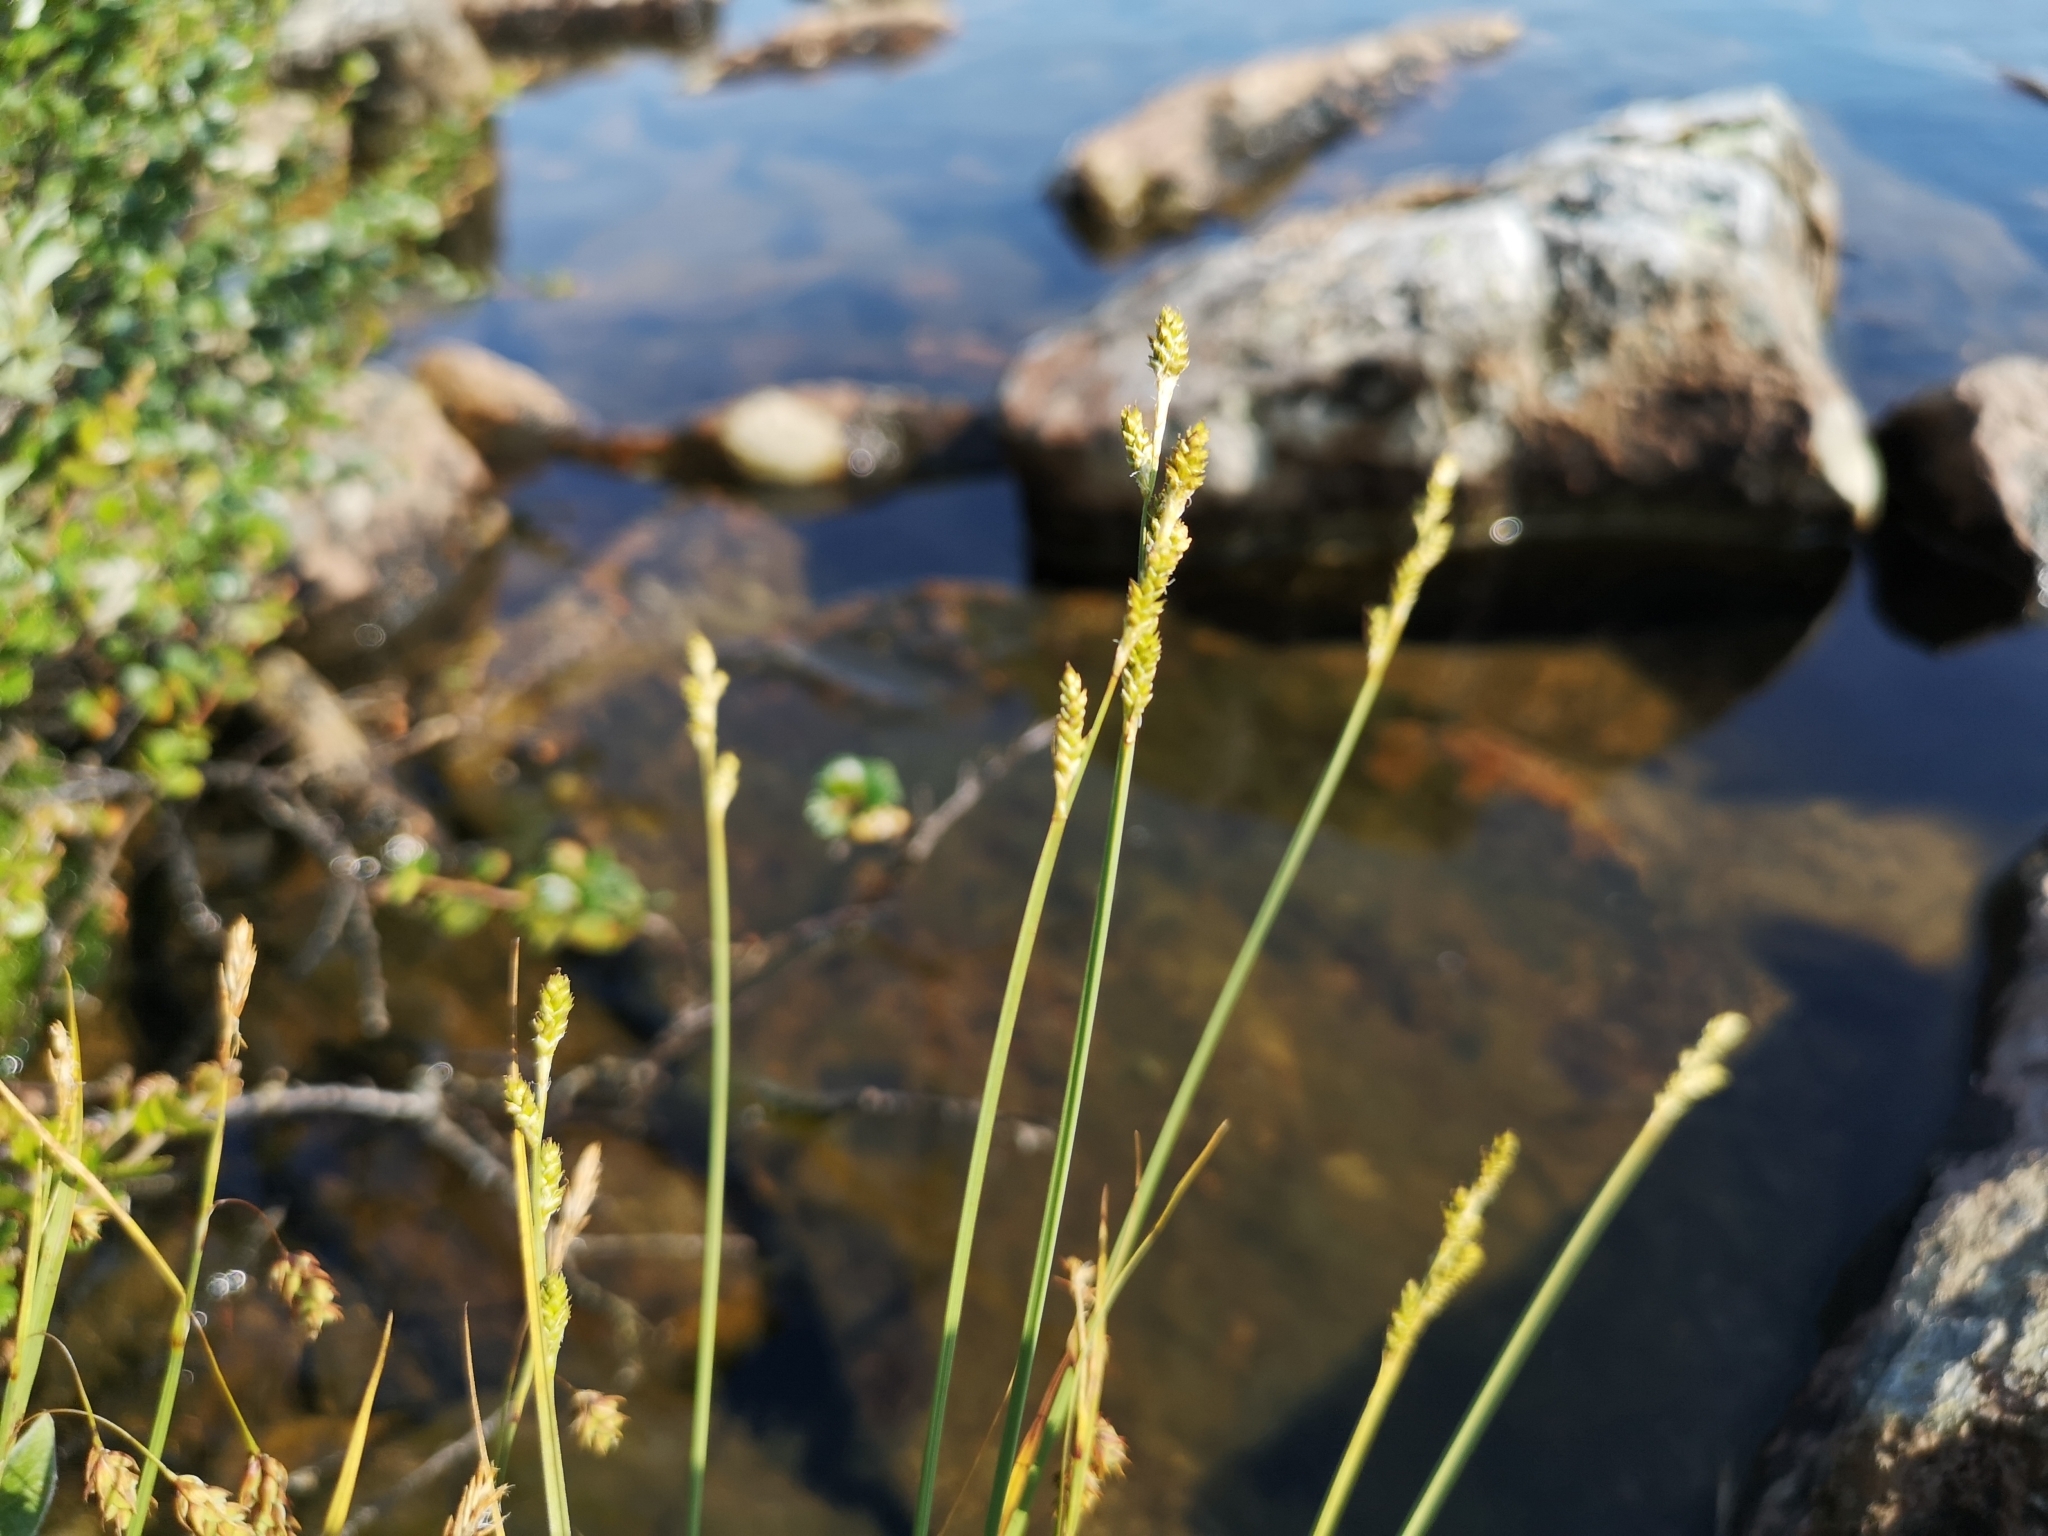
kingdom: Plantae
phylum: Tracheophyta
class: Liliopsida
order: Poales
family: Cyperaceae
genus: Carex
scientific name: Carex canescens
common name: White sedge
